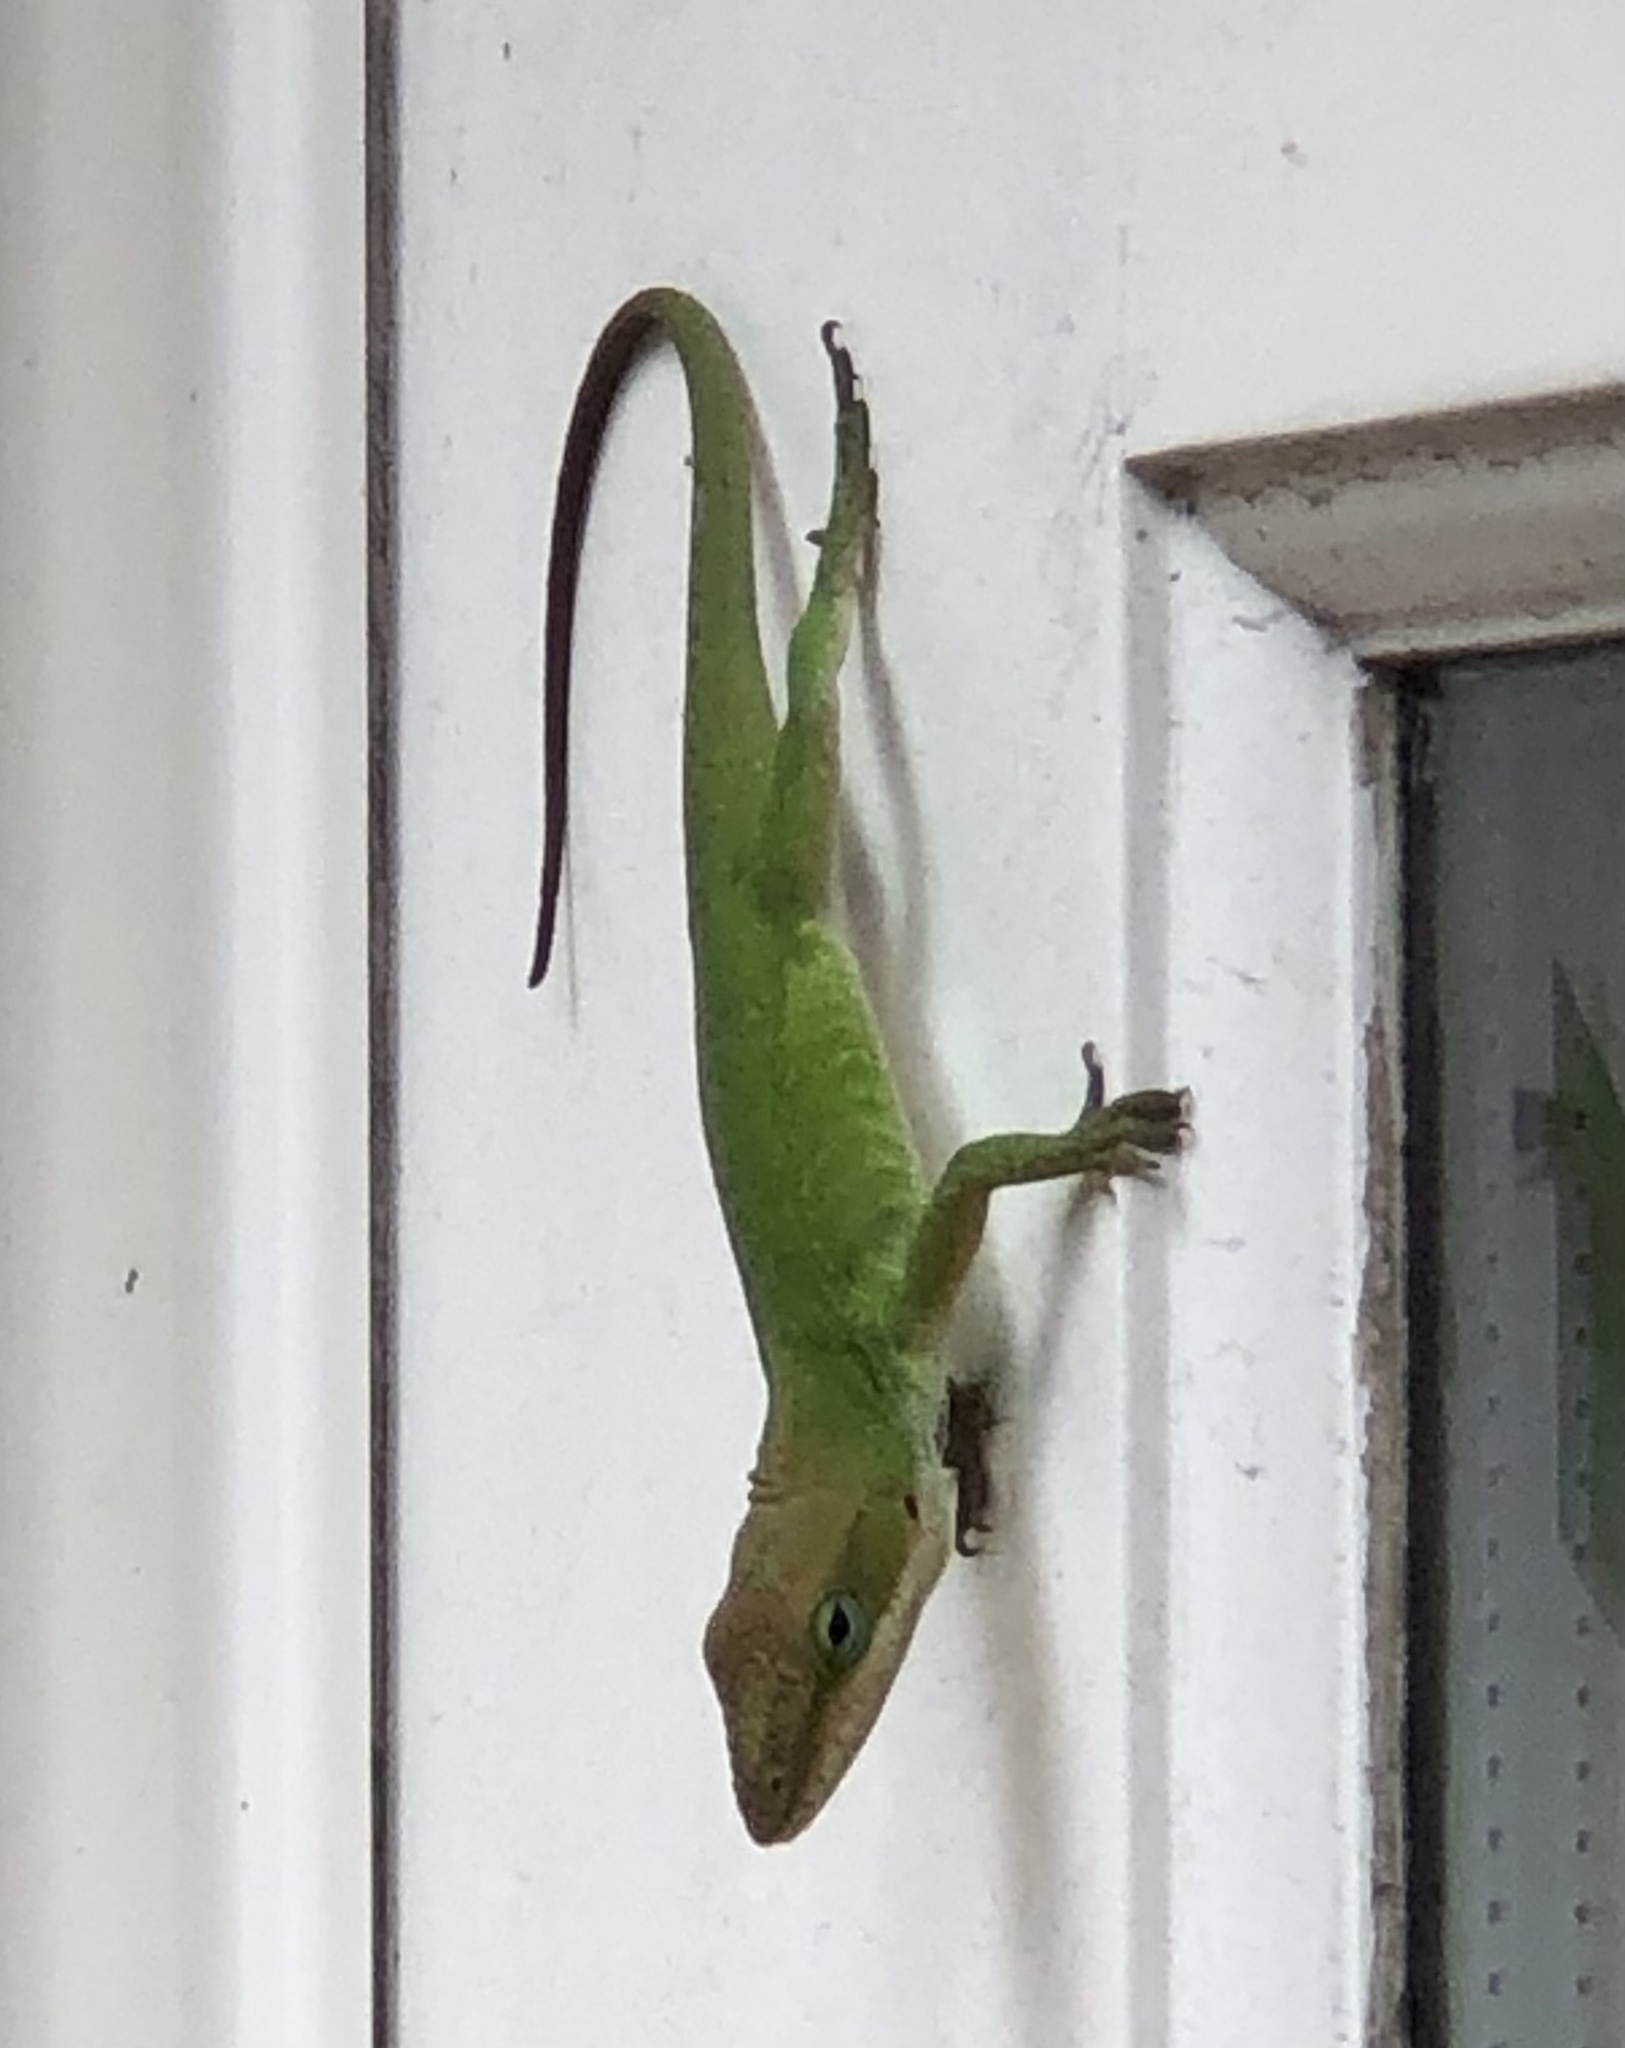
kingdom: Animalia
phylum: Chordata
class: Squamata
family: Dactyloidae
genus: Anolis
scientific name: Anolis carolinensis
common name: Green anole
